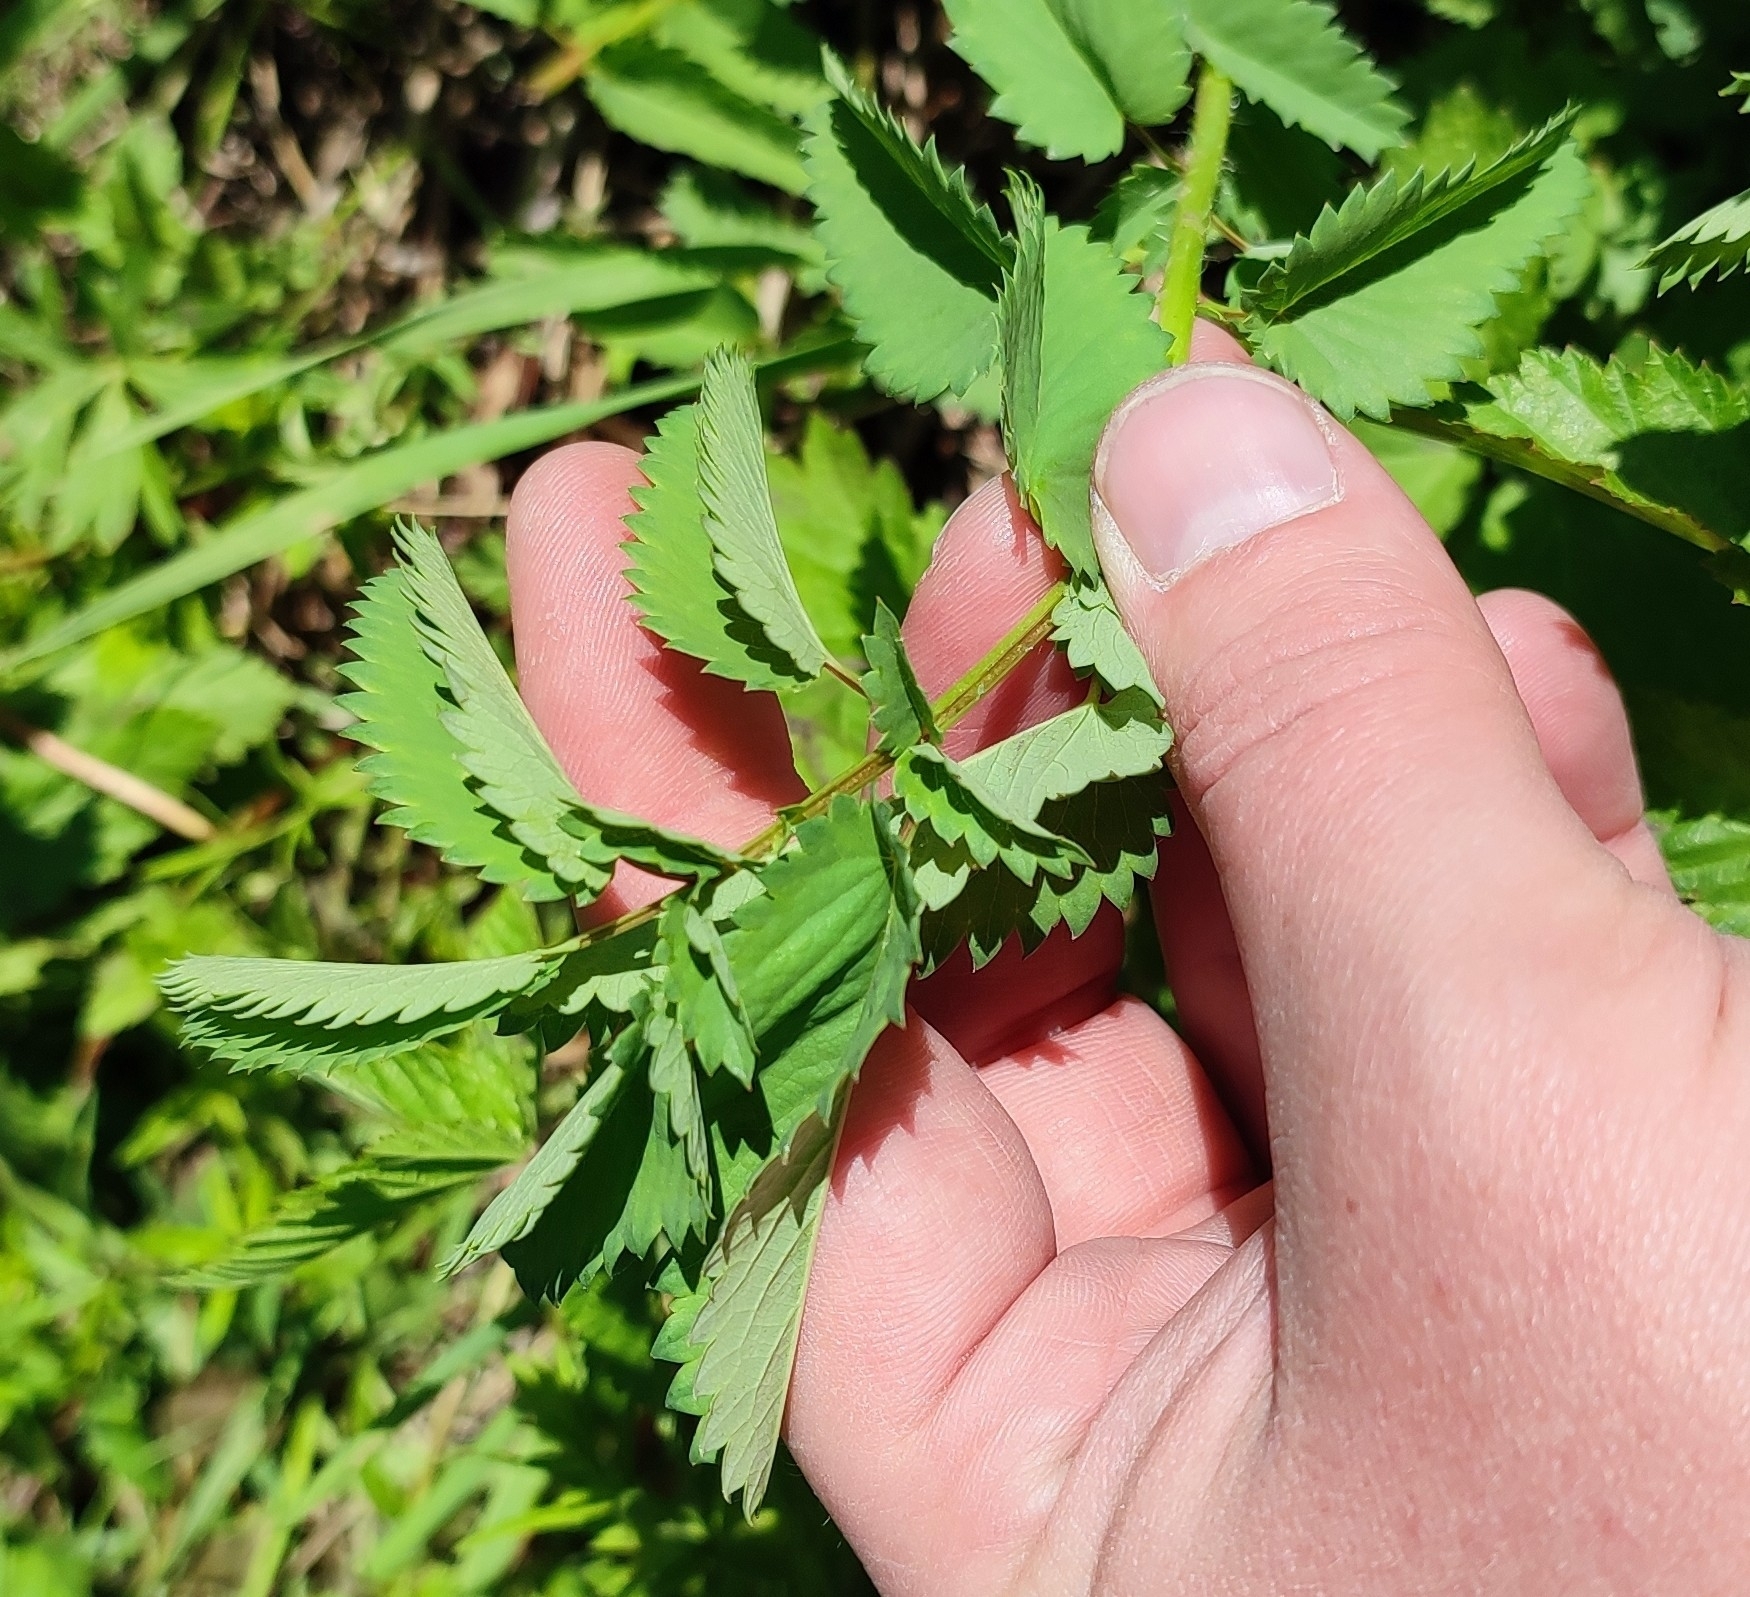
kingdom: Plantae
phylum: Tracheophyta
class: Magnoliopsida
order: Rosales
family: Rosaceae
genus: Sanguisorba
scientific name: Sanguisorba officinalis
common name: Great burnet
